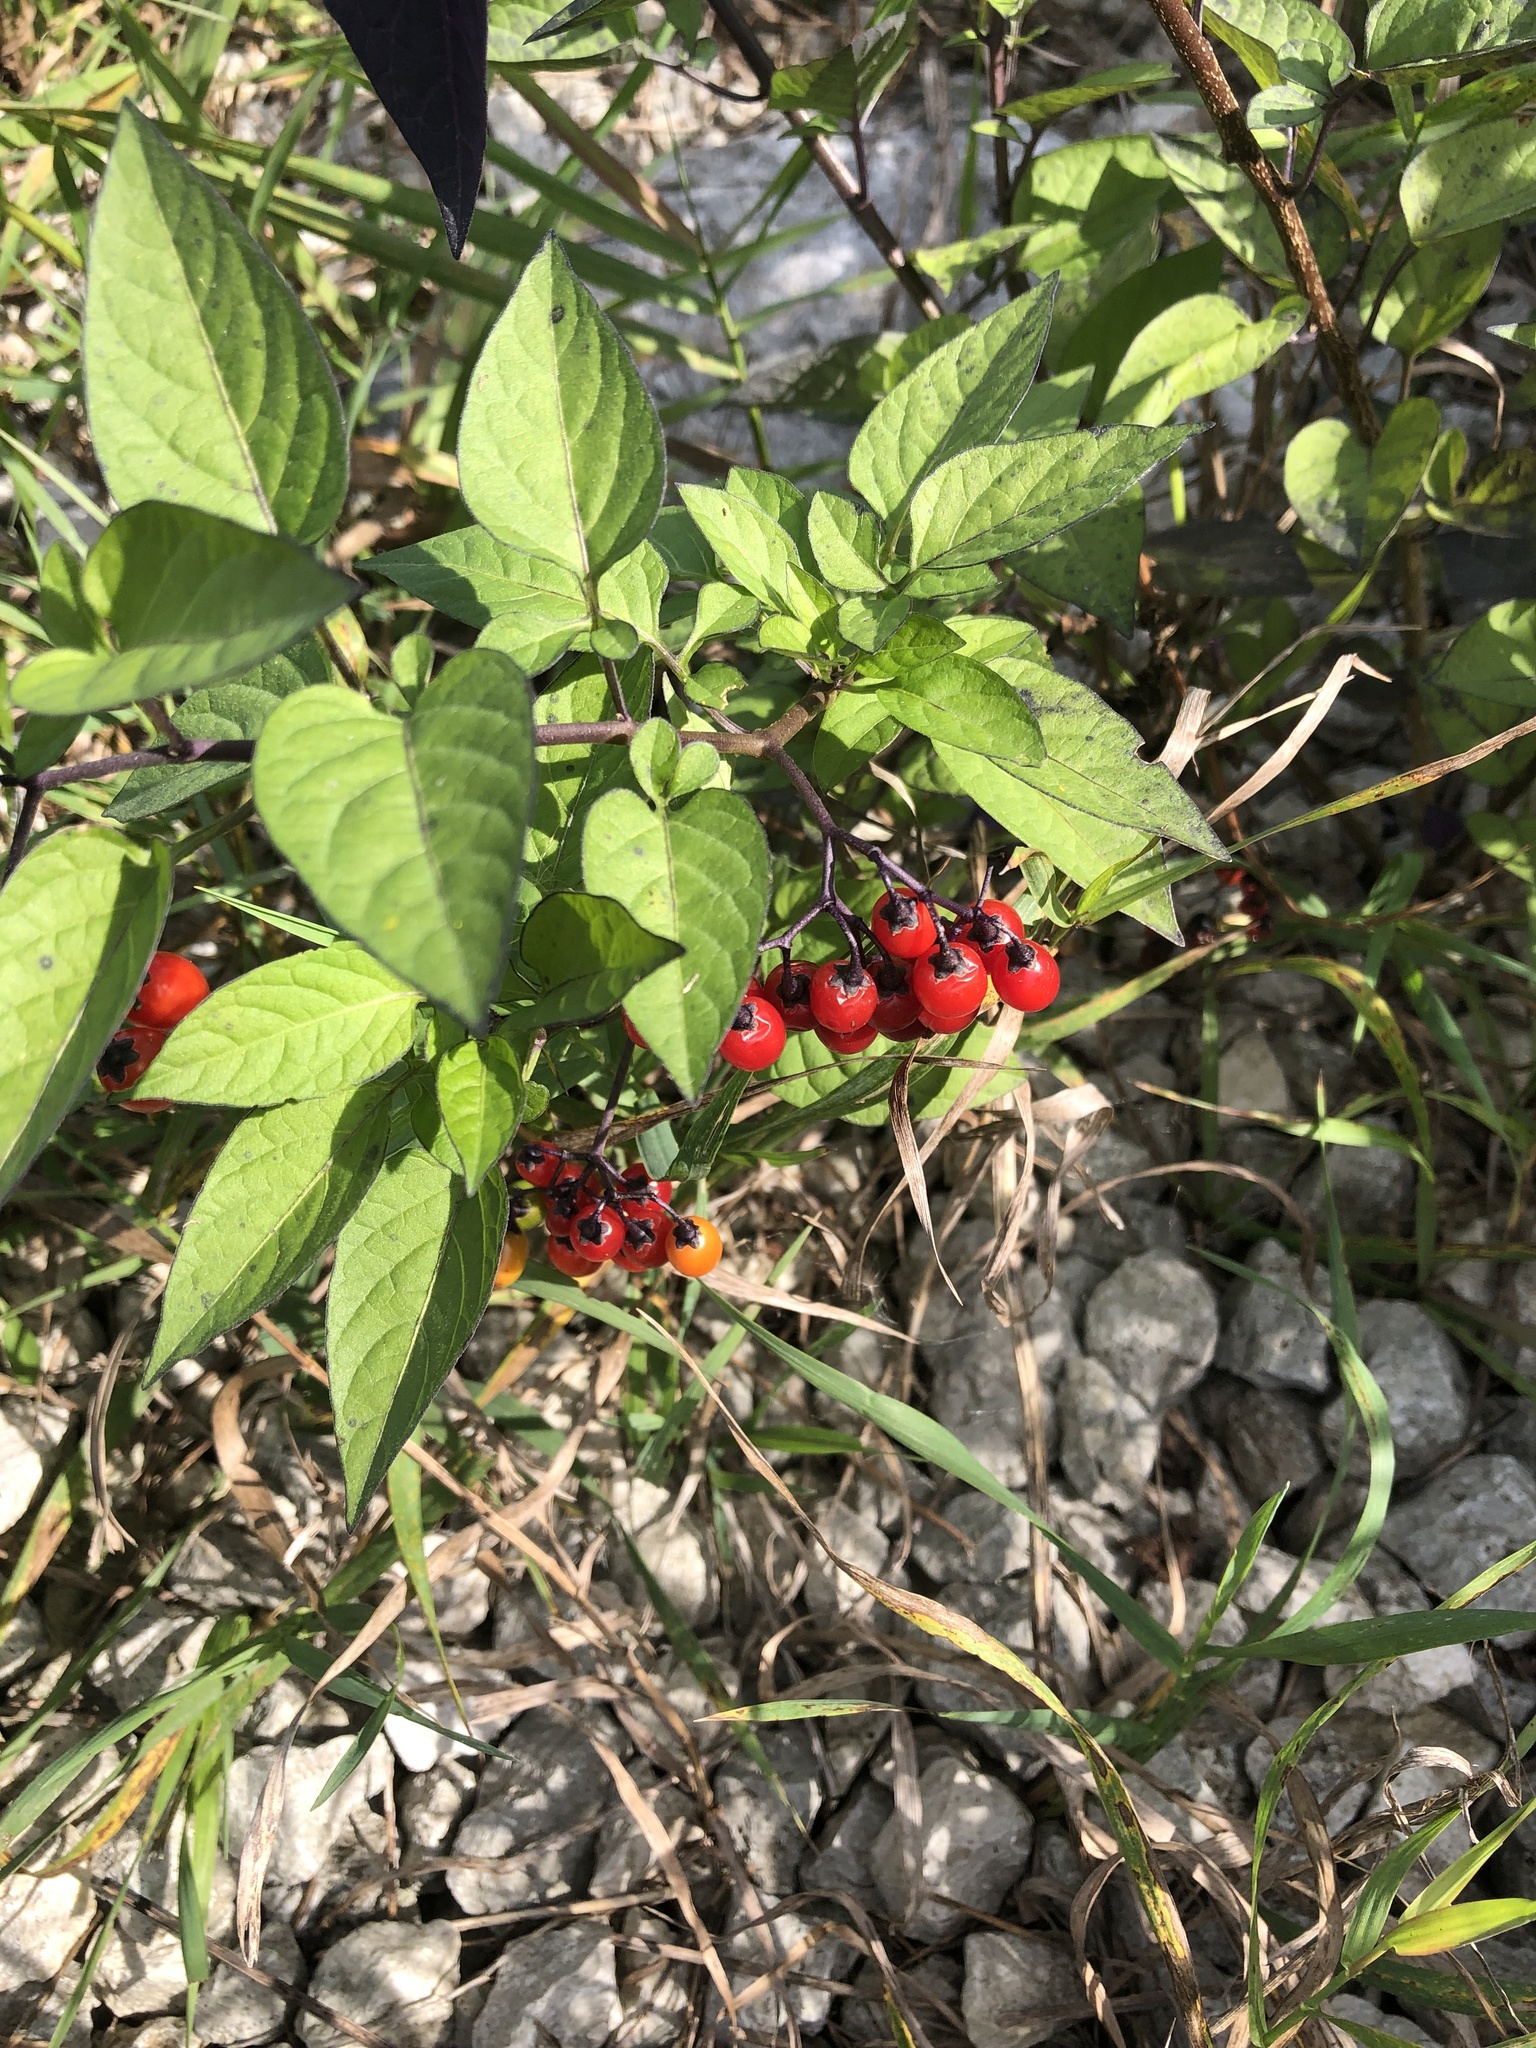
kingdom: Plantae
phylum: Tracheophyta
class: Magnoliopsida
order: Solanales
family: Solanaceae
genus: Solanum
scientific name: Solanum dulcamara
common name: Climbing nightshade
